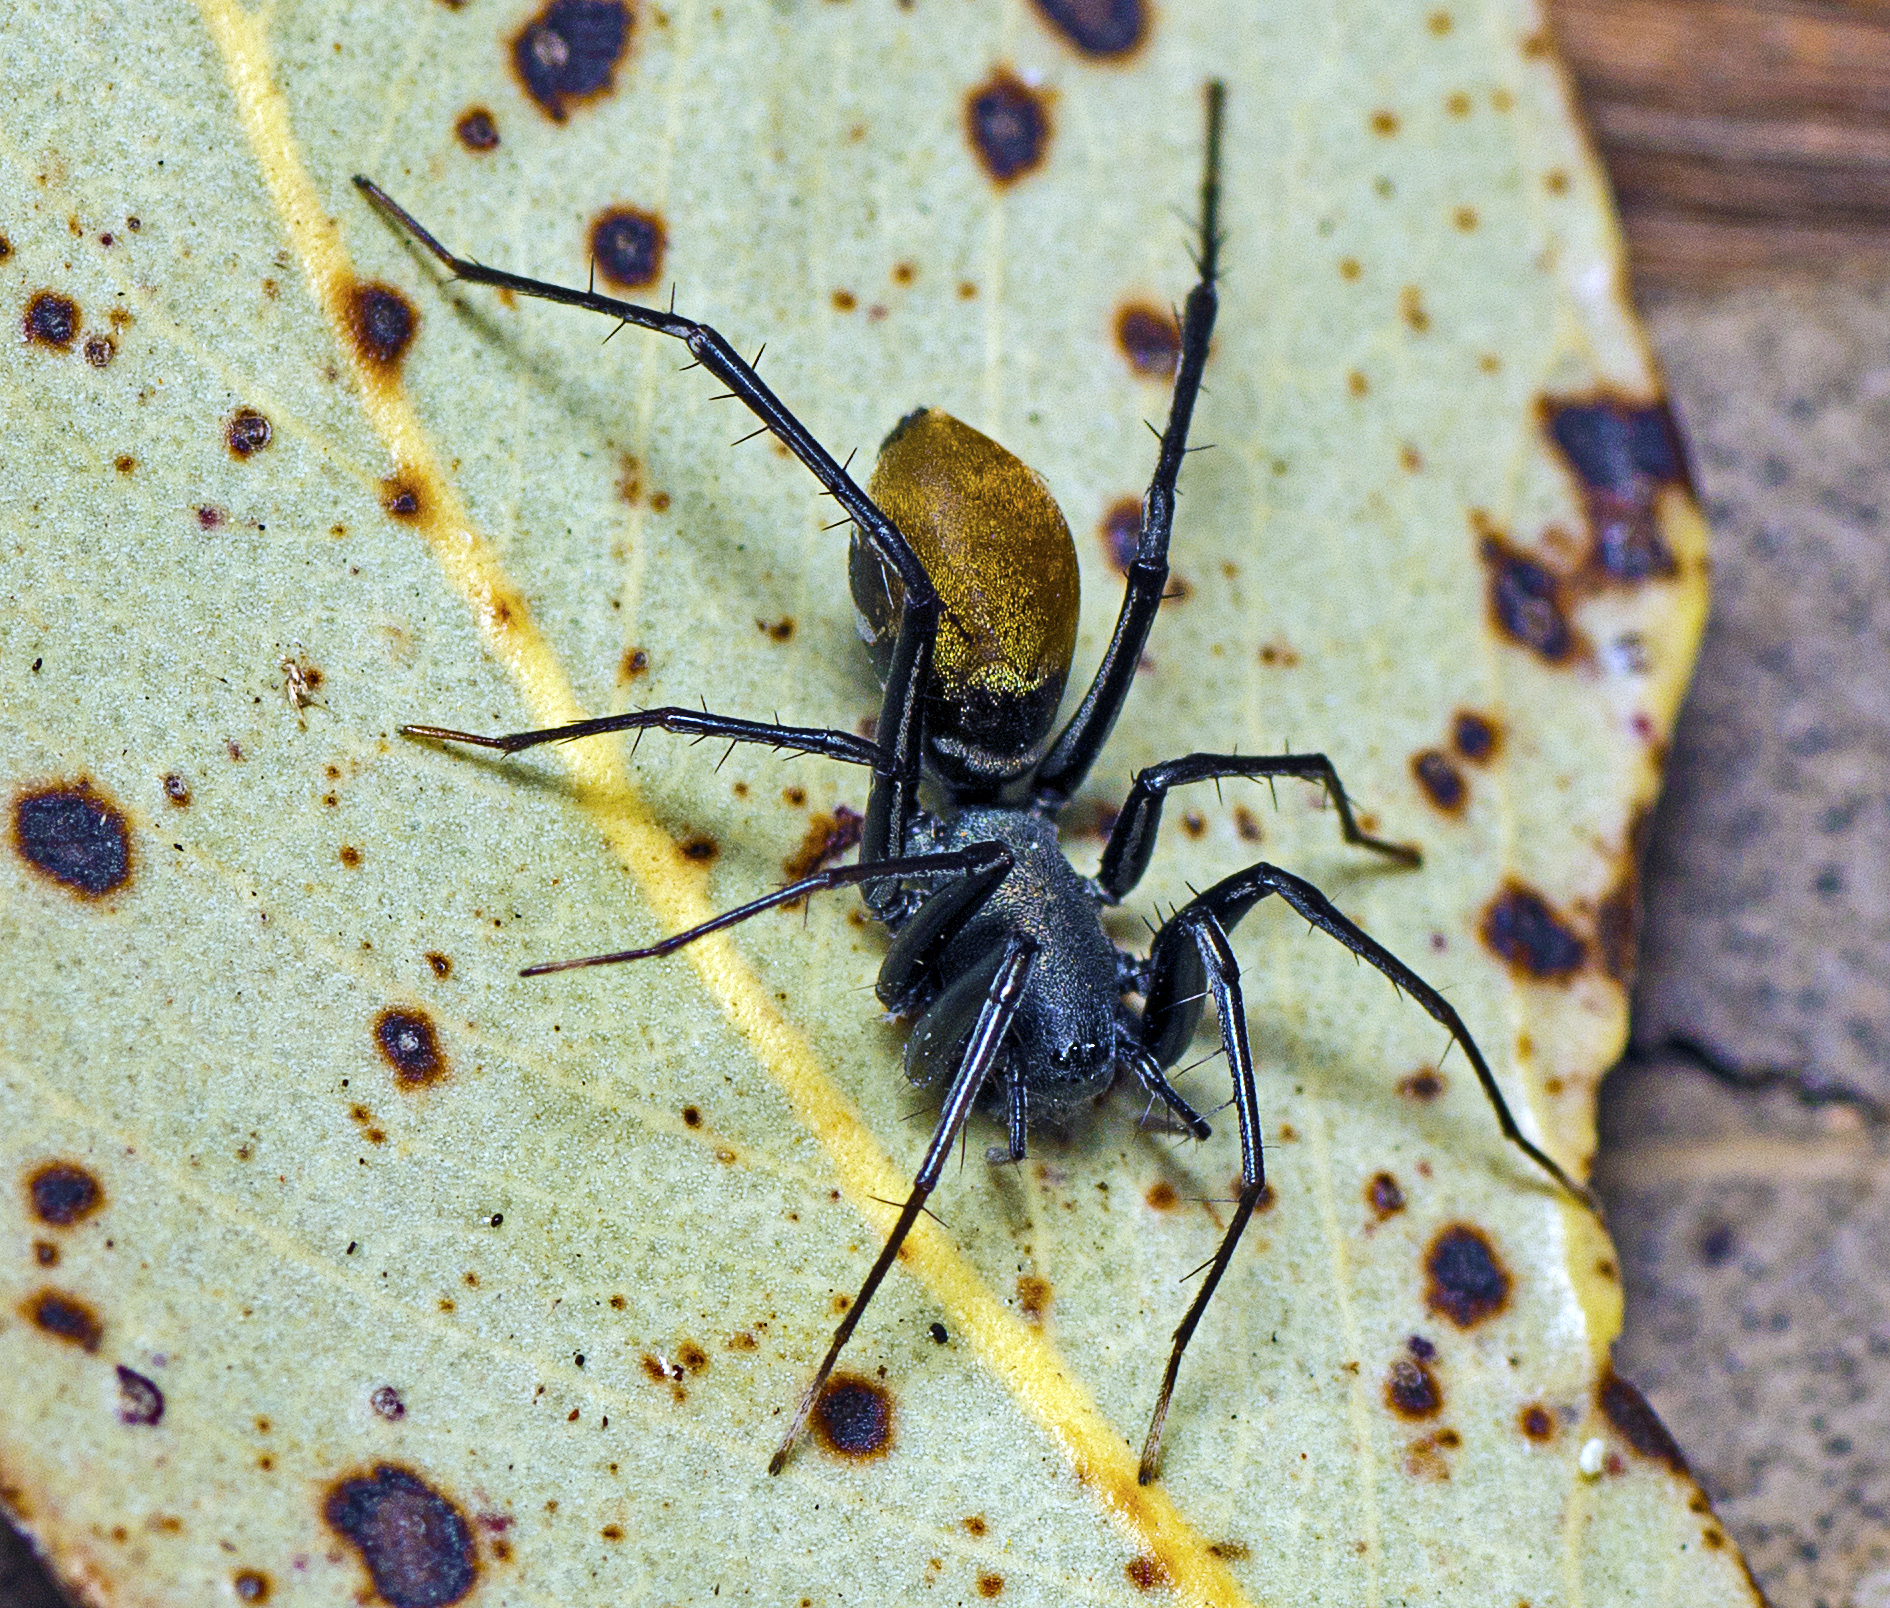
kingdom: Animalia
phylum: Arthropoda
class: Arachnida
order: Araneae
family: Corinnidae
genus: Nyssus
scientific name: Nyssus luteofinis
